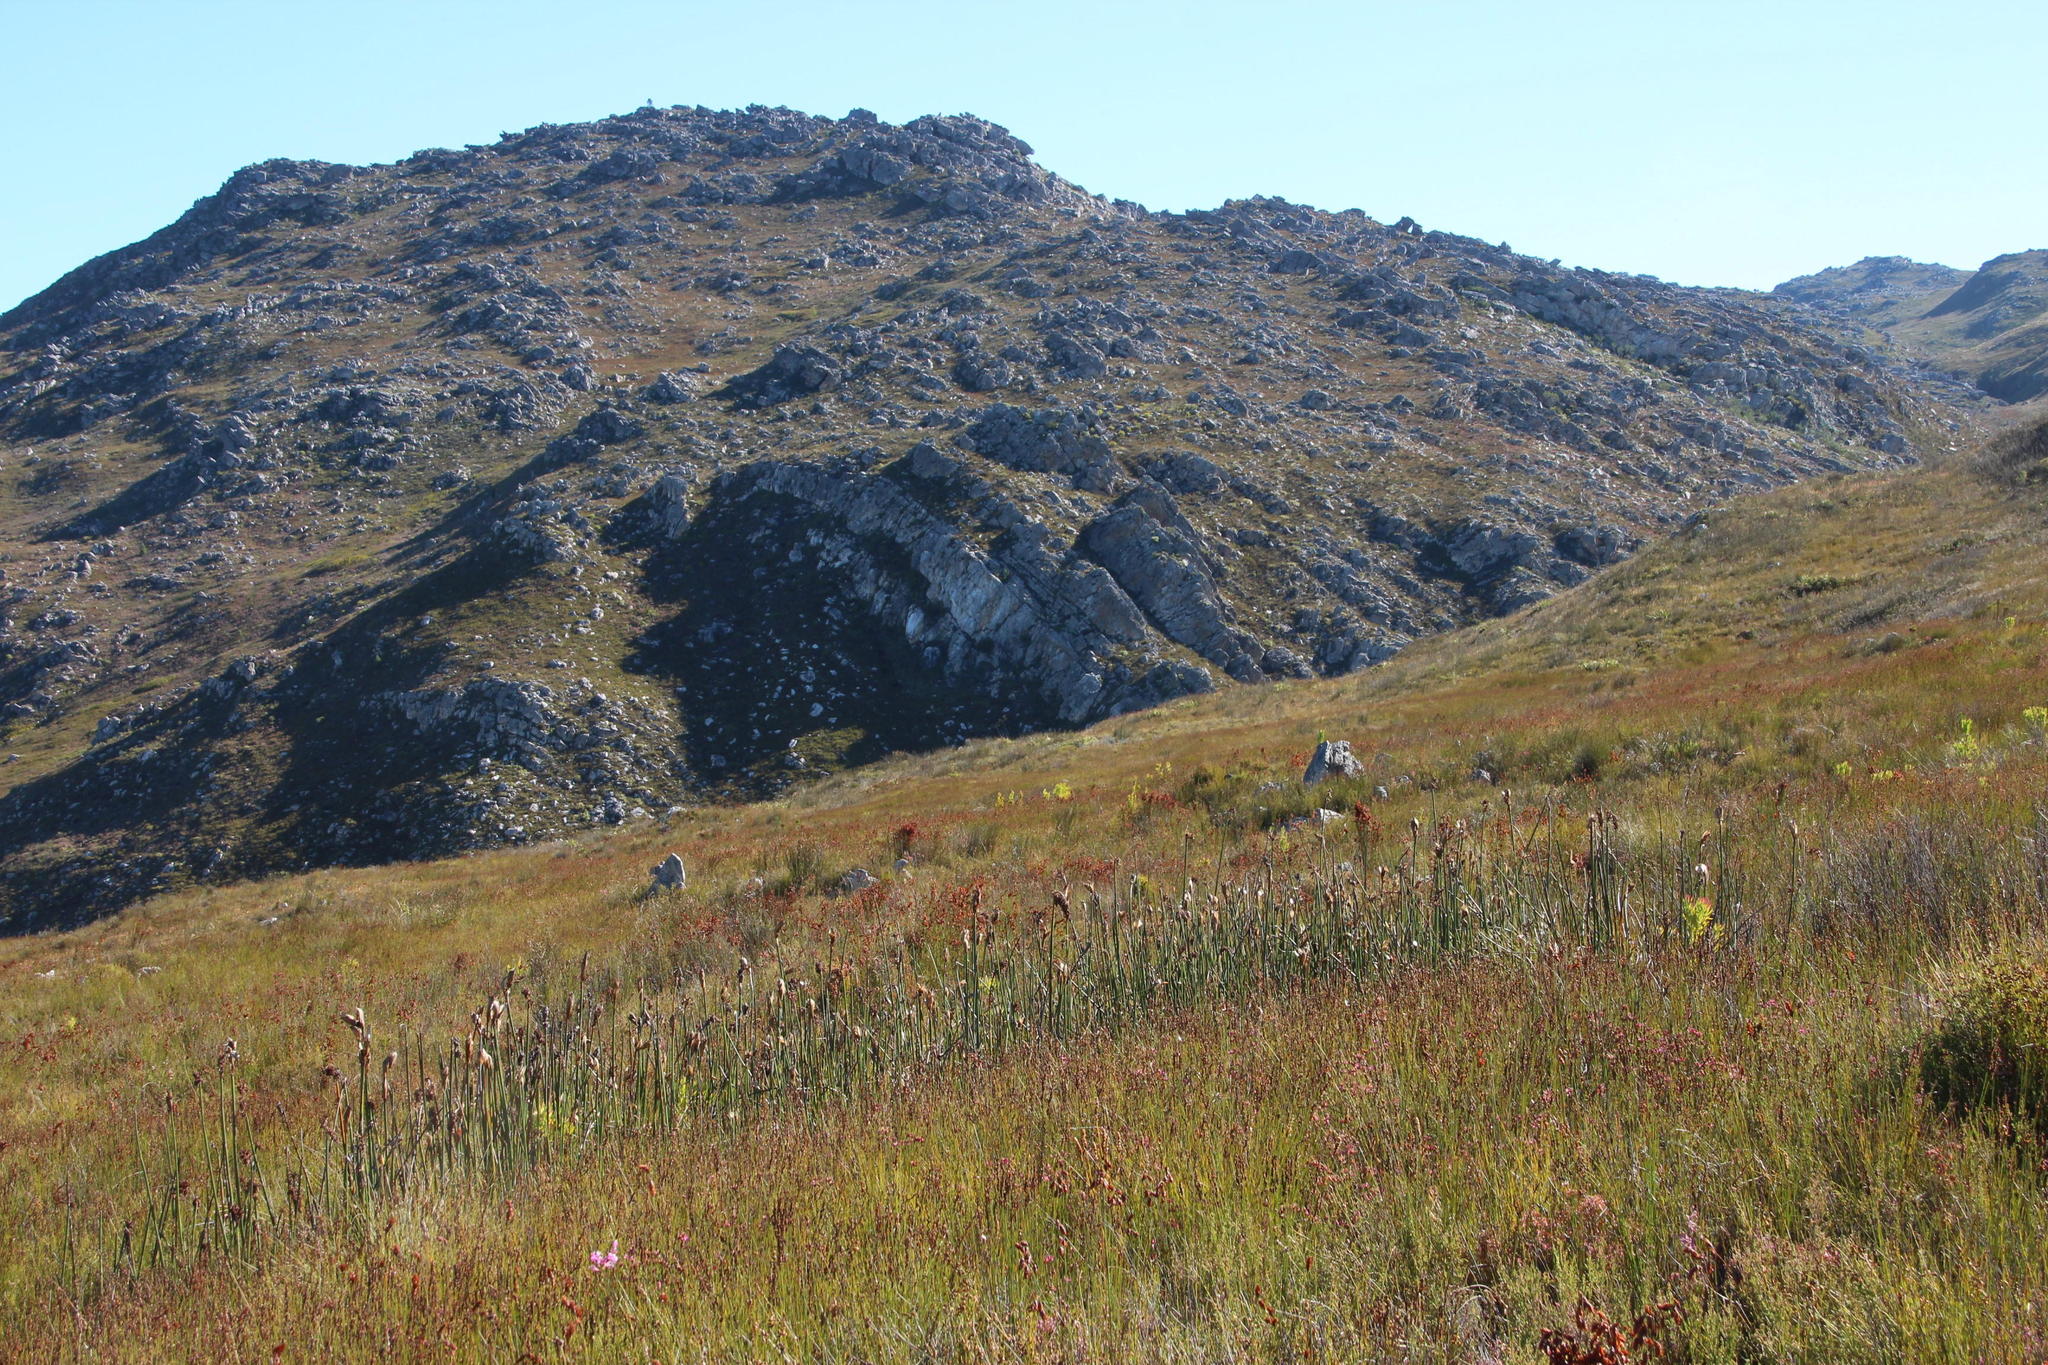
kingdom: Plantae
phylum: Tracheophyta
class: Liliopsida
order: Poales
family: Restionaceae
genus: Elegia
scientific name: Elegia mucronata
